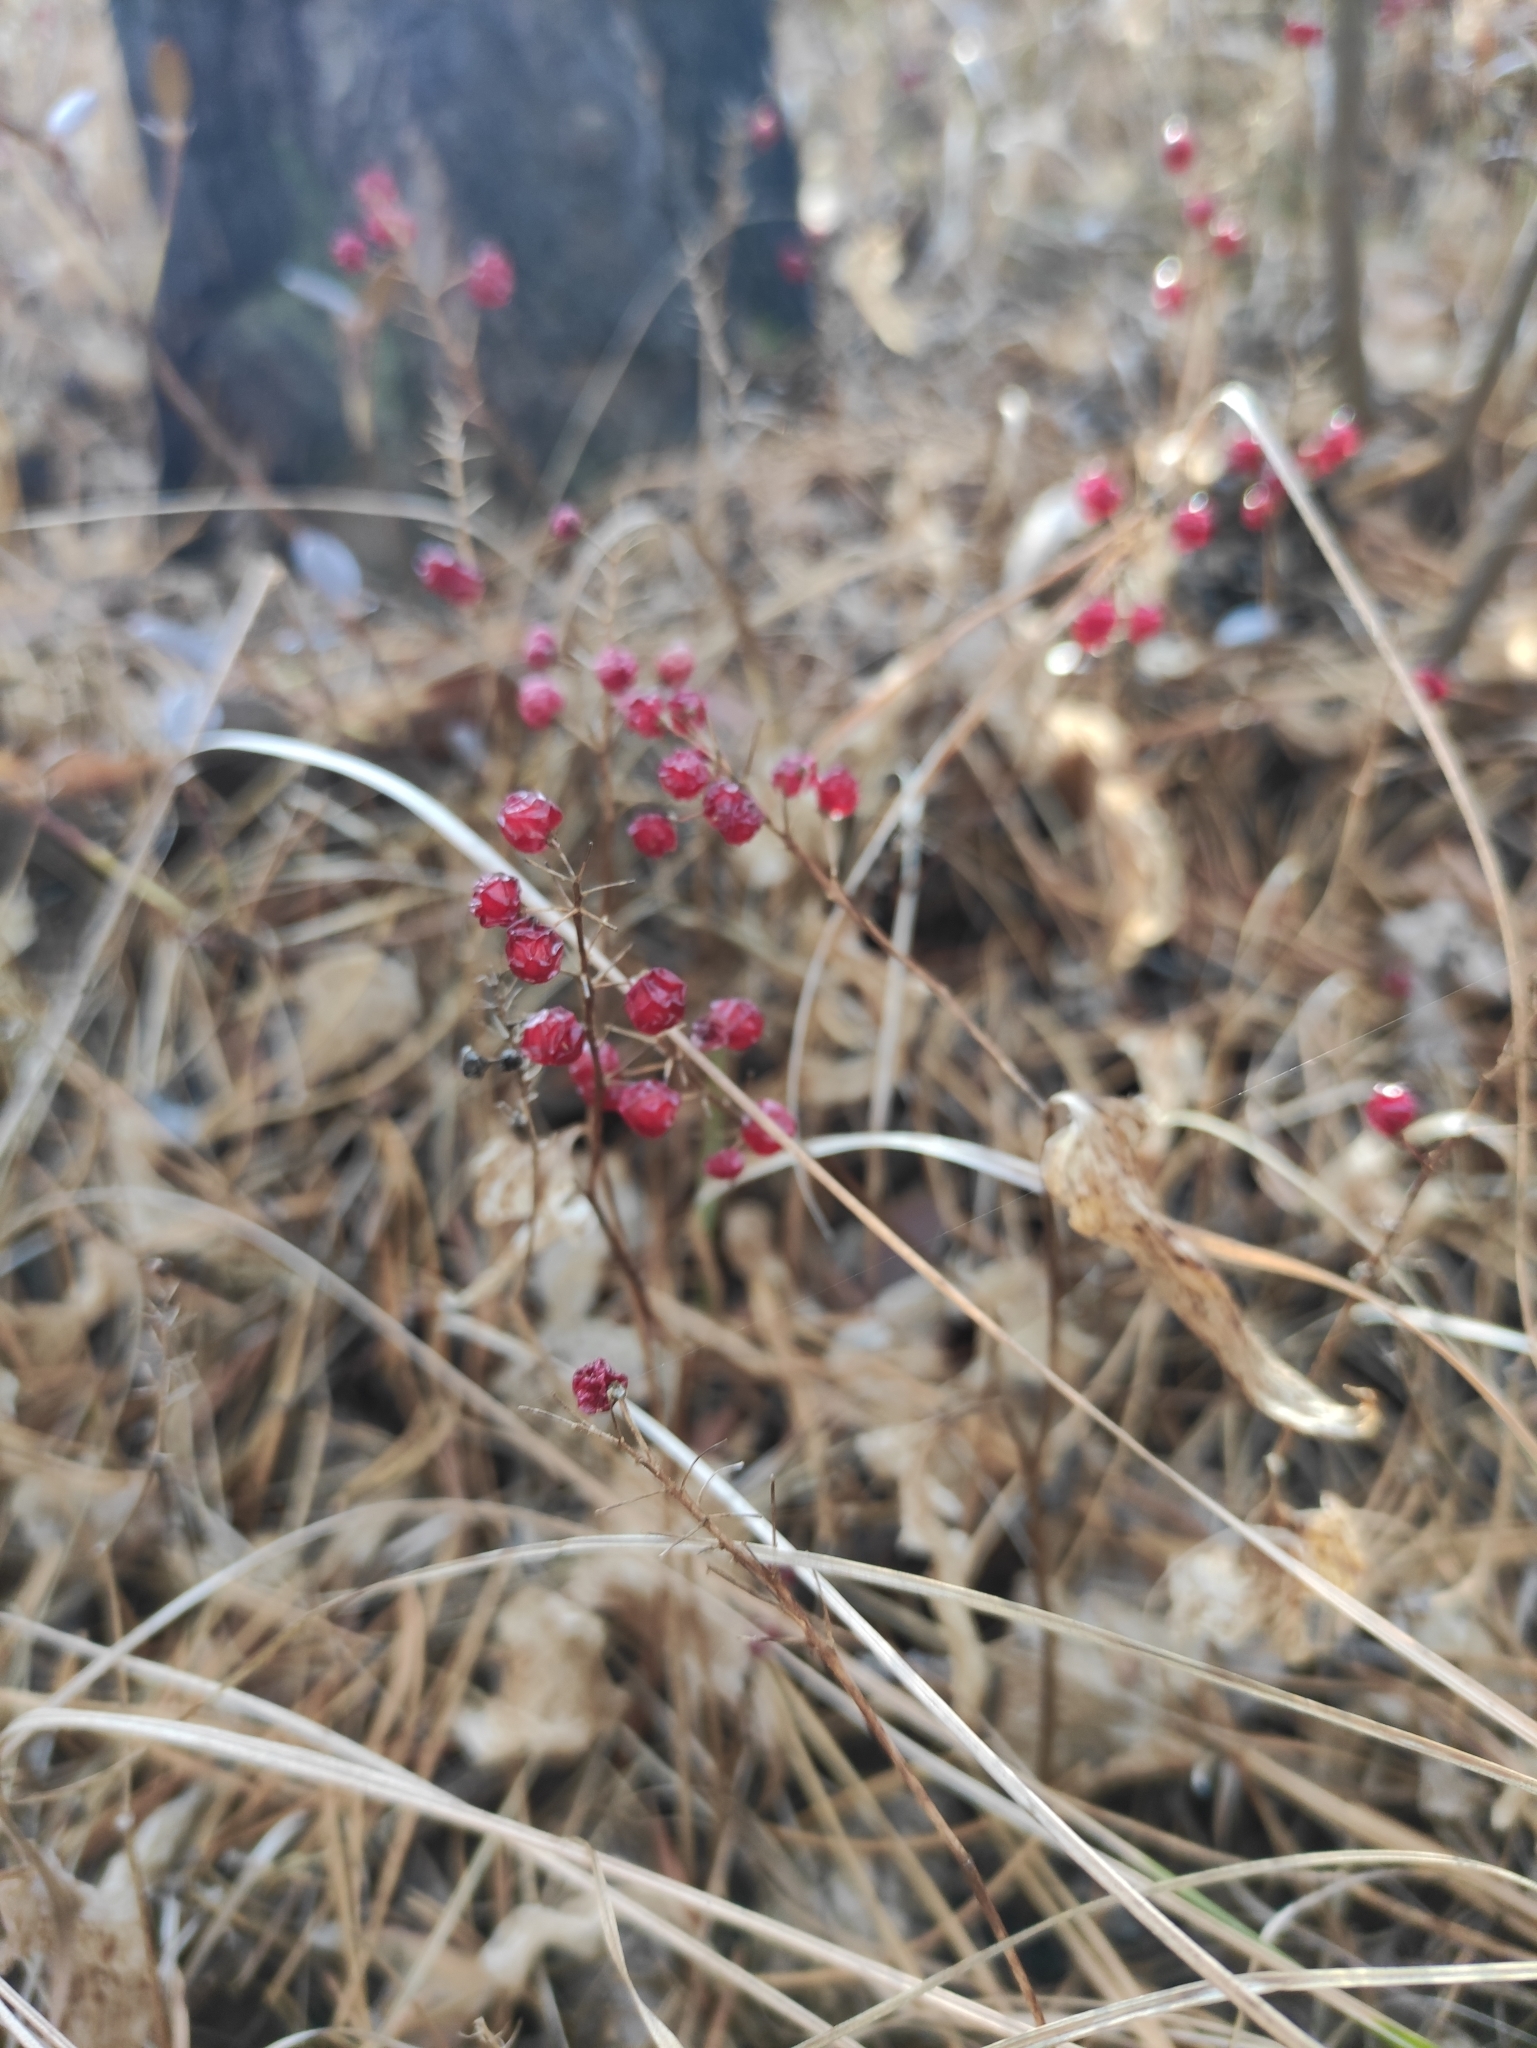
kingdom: Plantae
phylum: Tracheophyta
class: Liliopsida
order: Asparagales
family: Asparagaceae
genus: Maianthemum
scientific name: Maianthemum bifolium
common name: May lily
